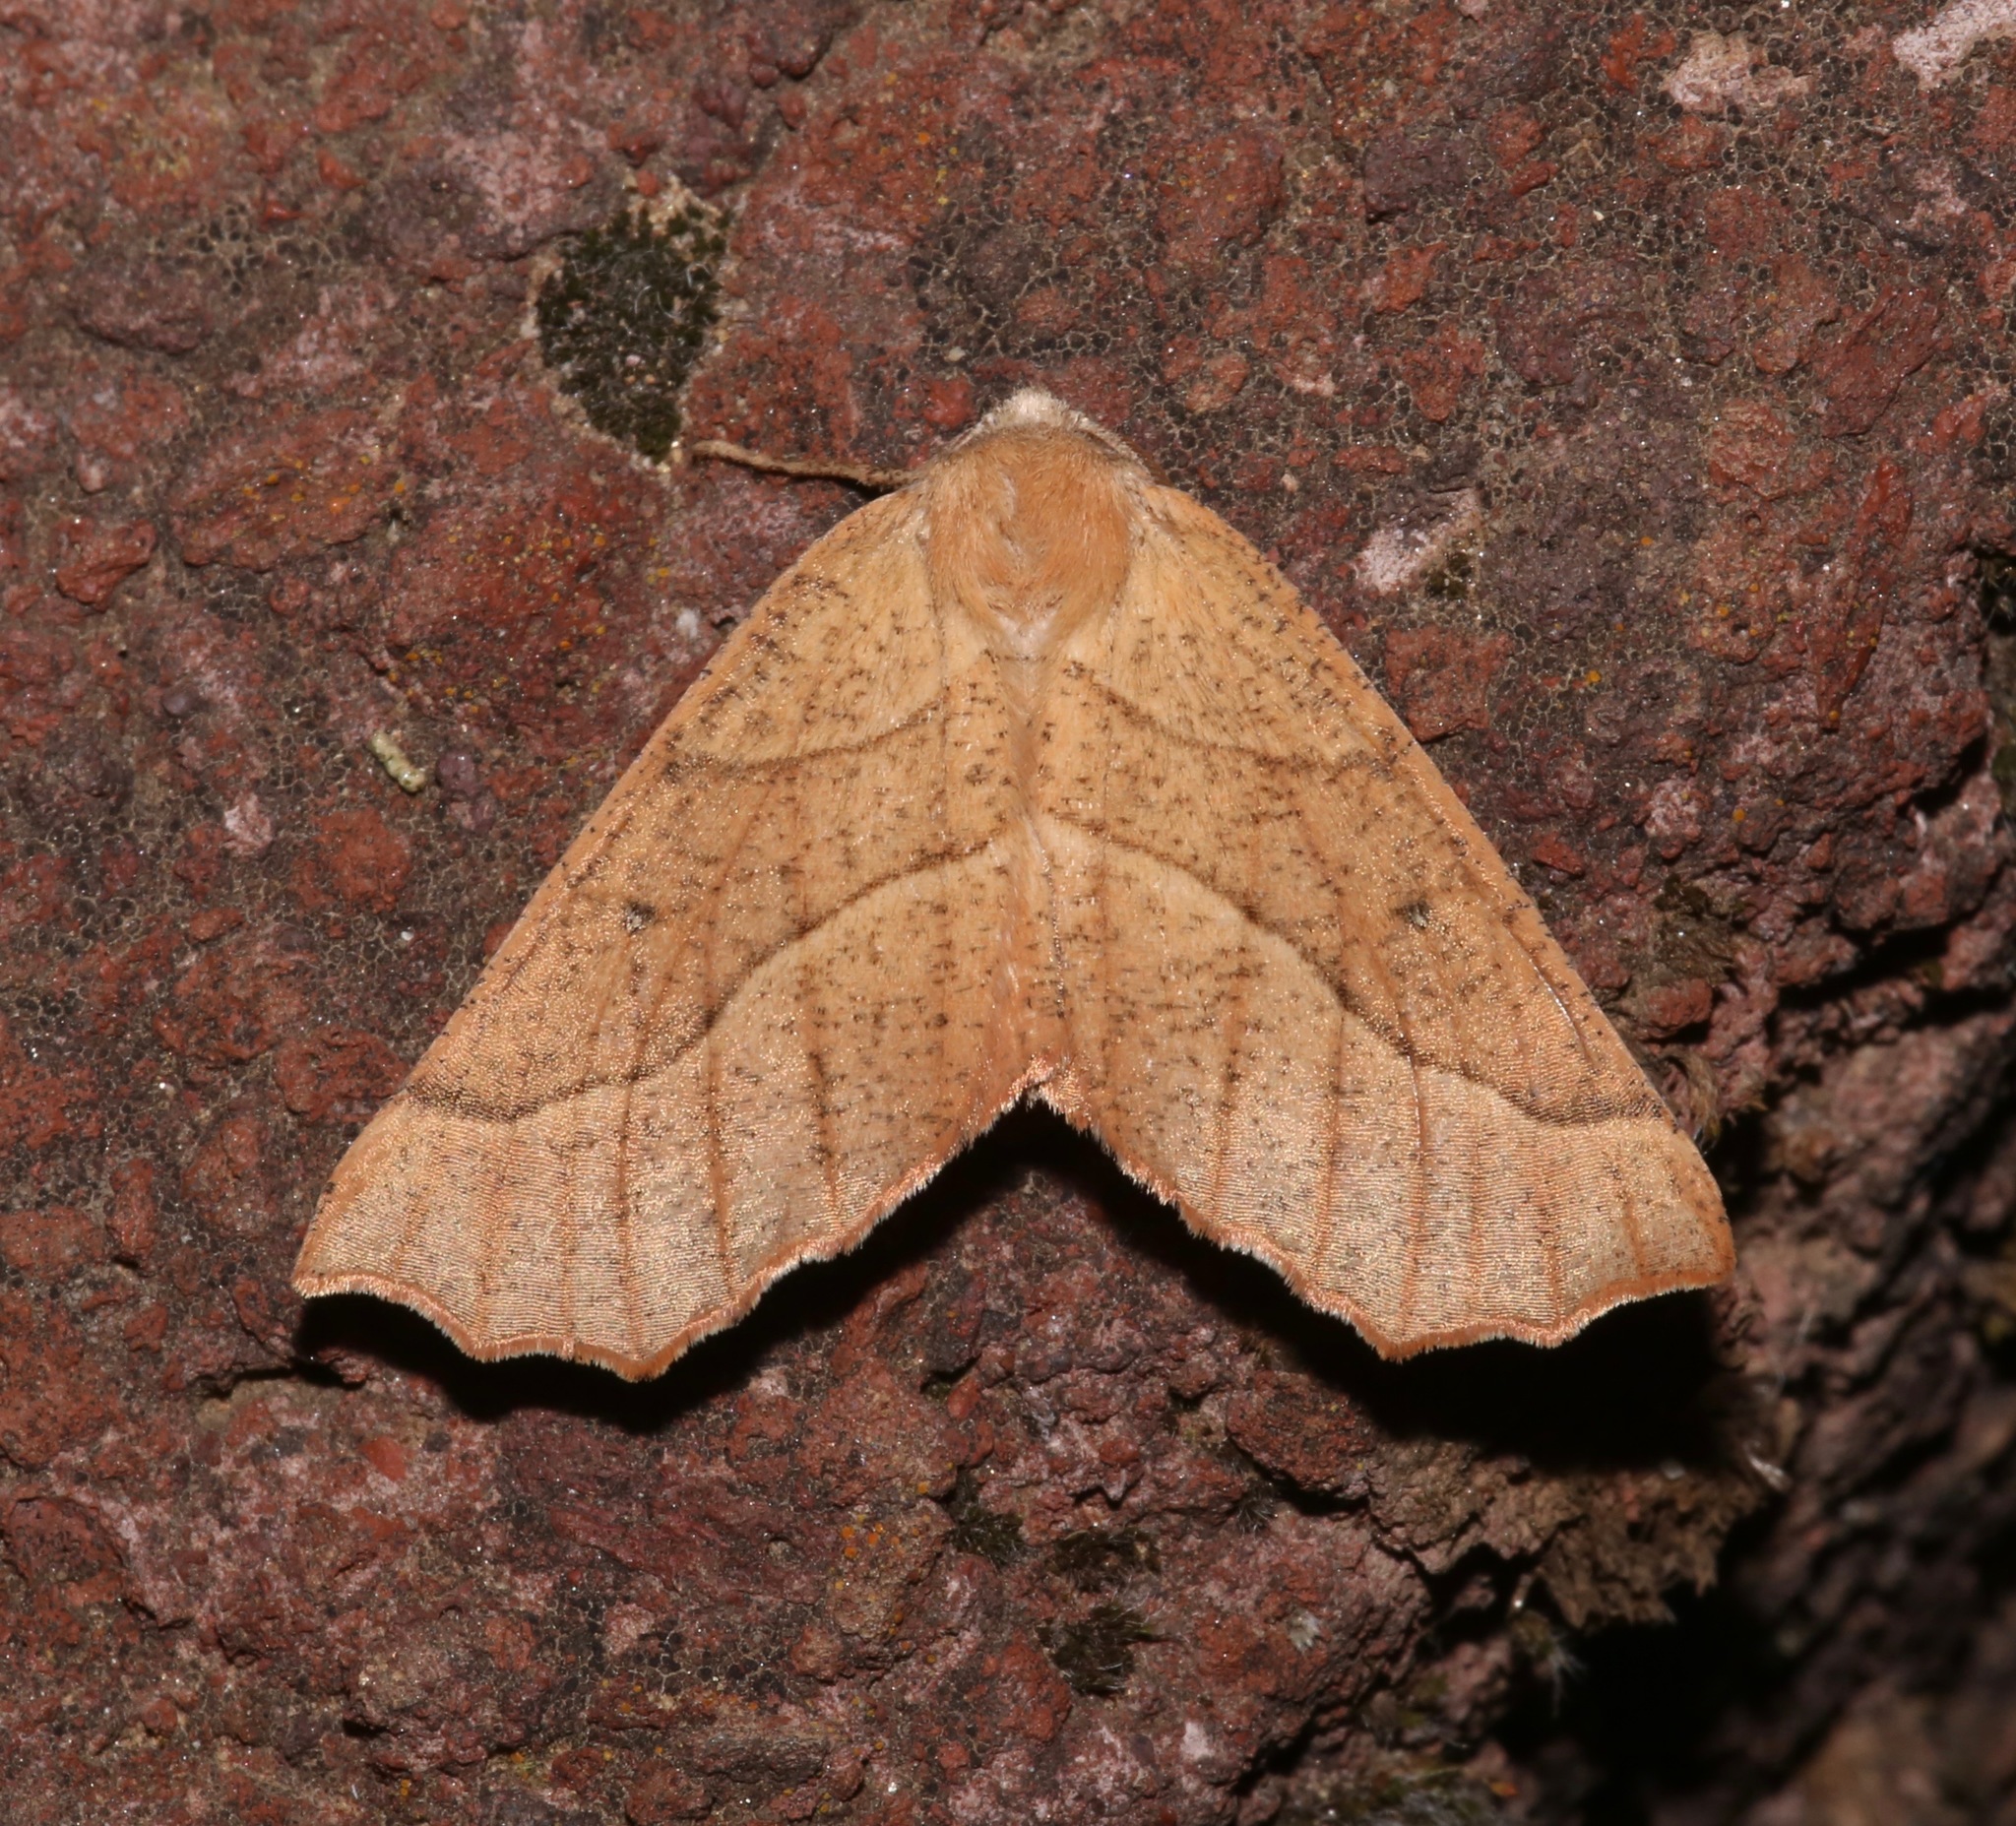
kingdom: Animalia
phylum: Arthropoda
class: Insecta
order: Lepidoptera
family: Geometridae
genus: Caripeta
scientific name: Caripeta ocellaria
